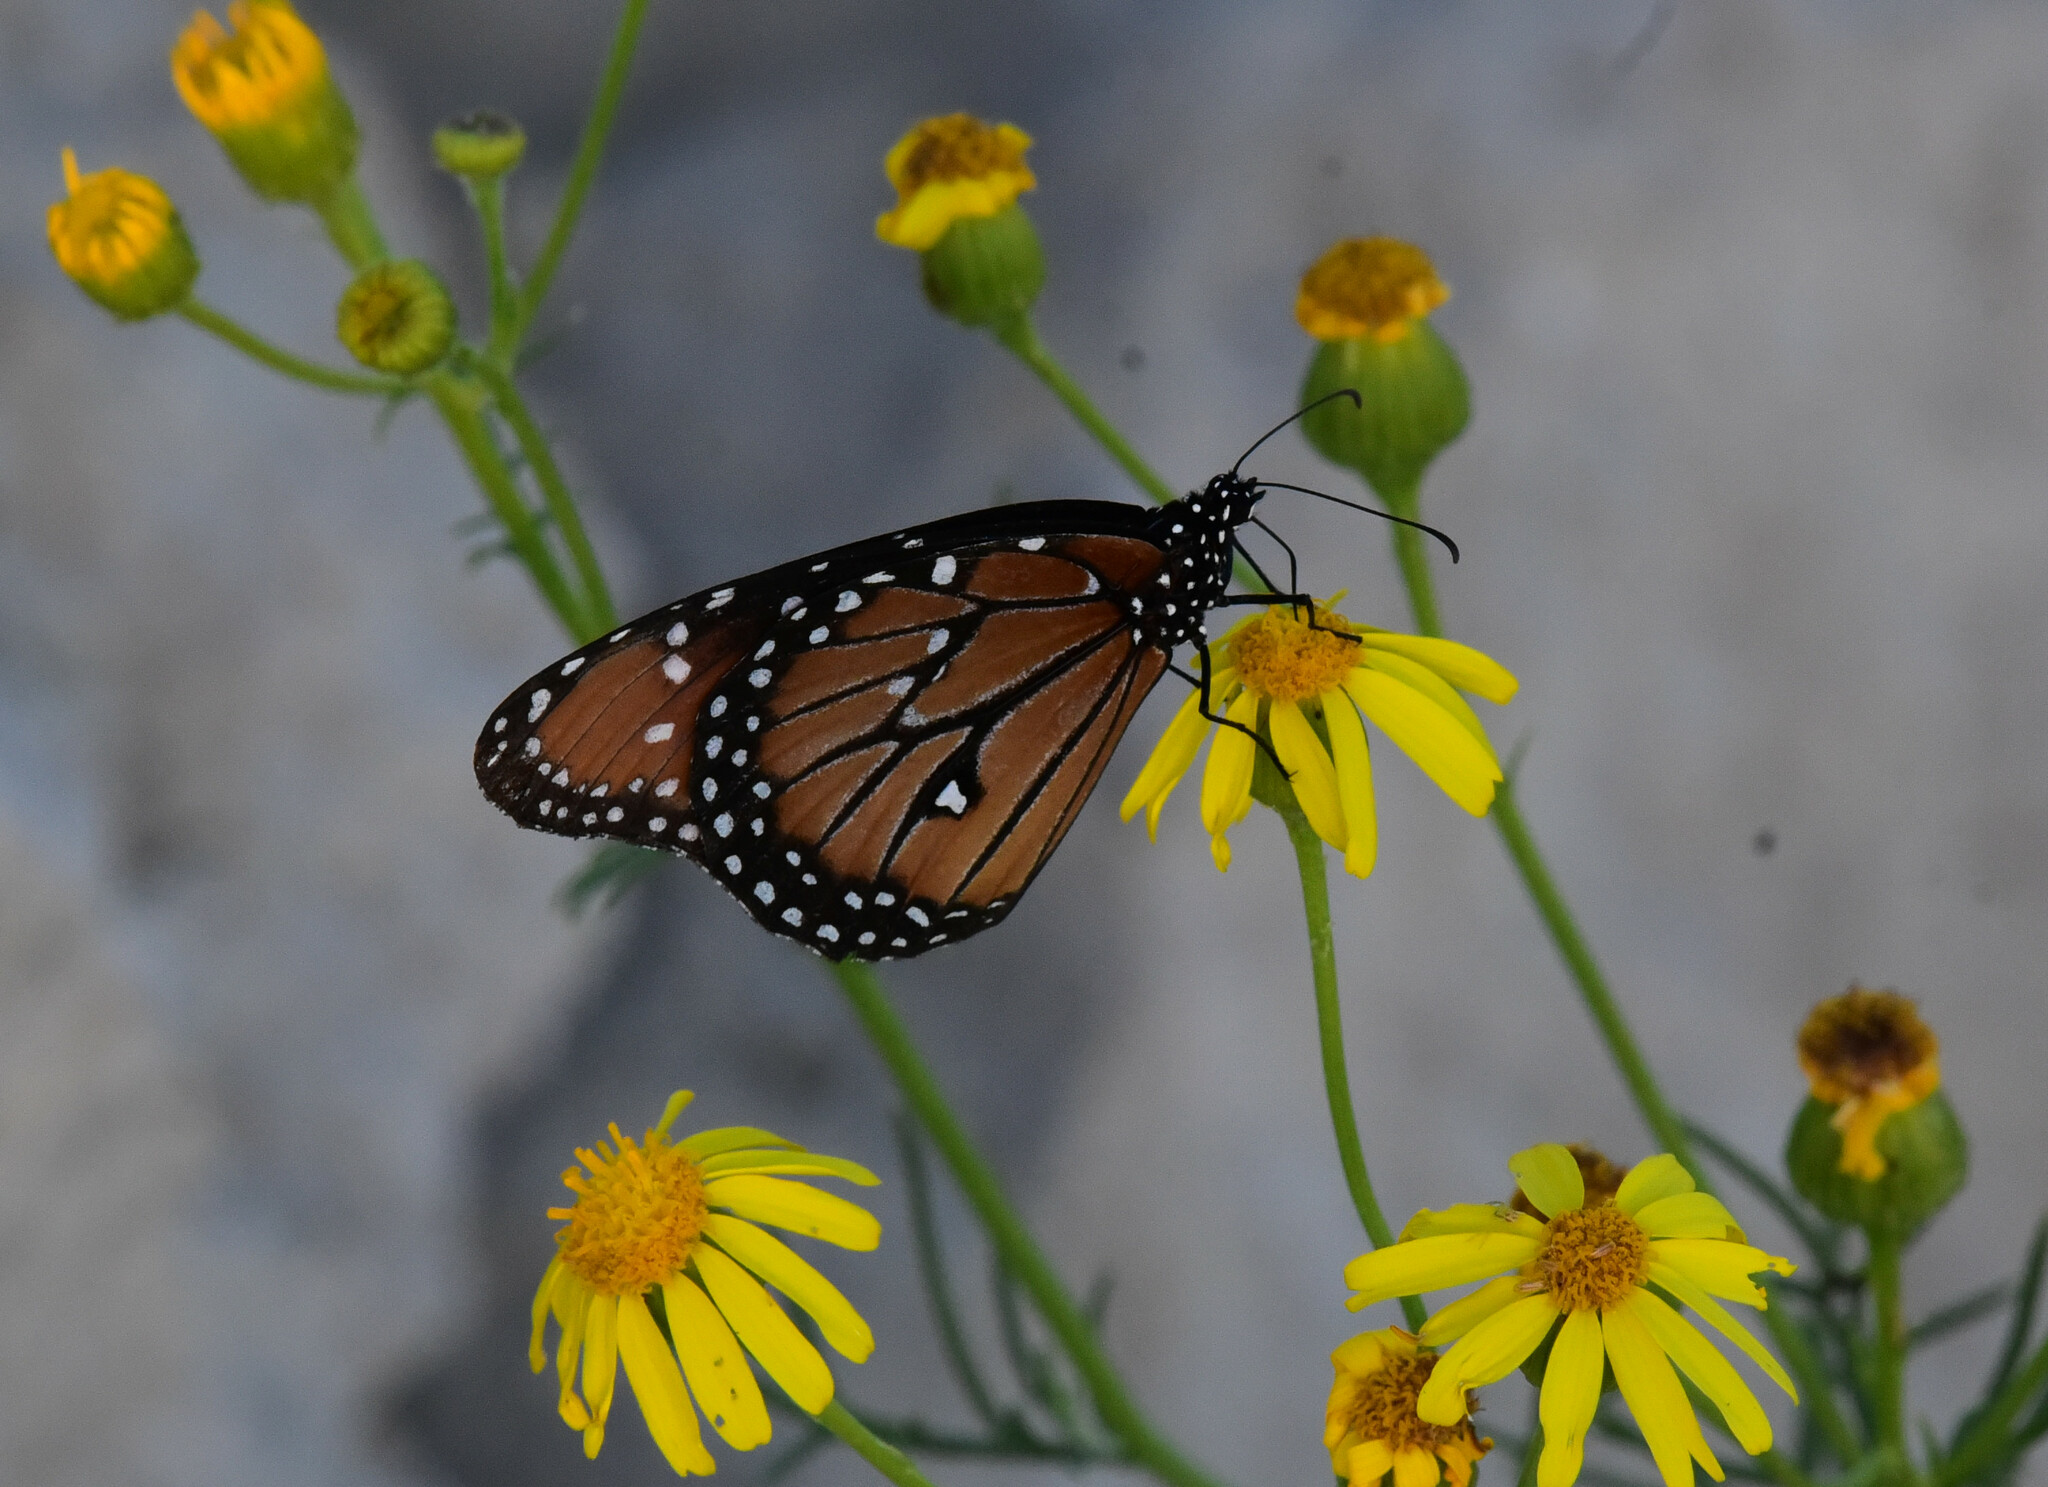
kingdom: Animalia
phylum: Arthropoda
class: Insecta
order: Lepidoptera
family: Nymphalidae
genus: Danaus
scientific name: Danaus gilippus
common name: Queen
